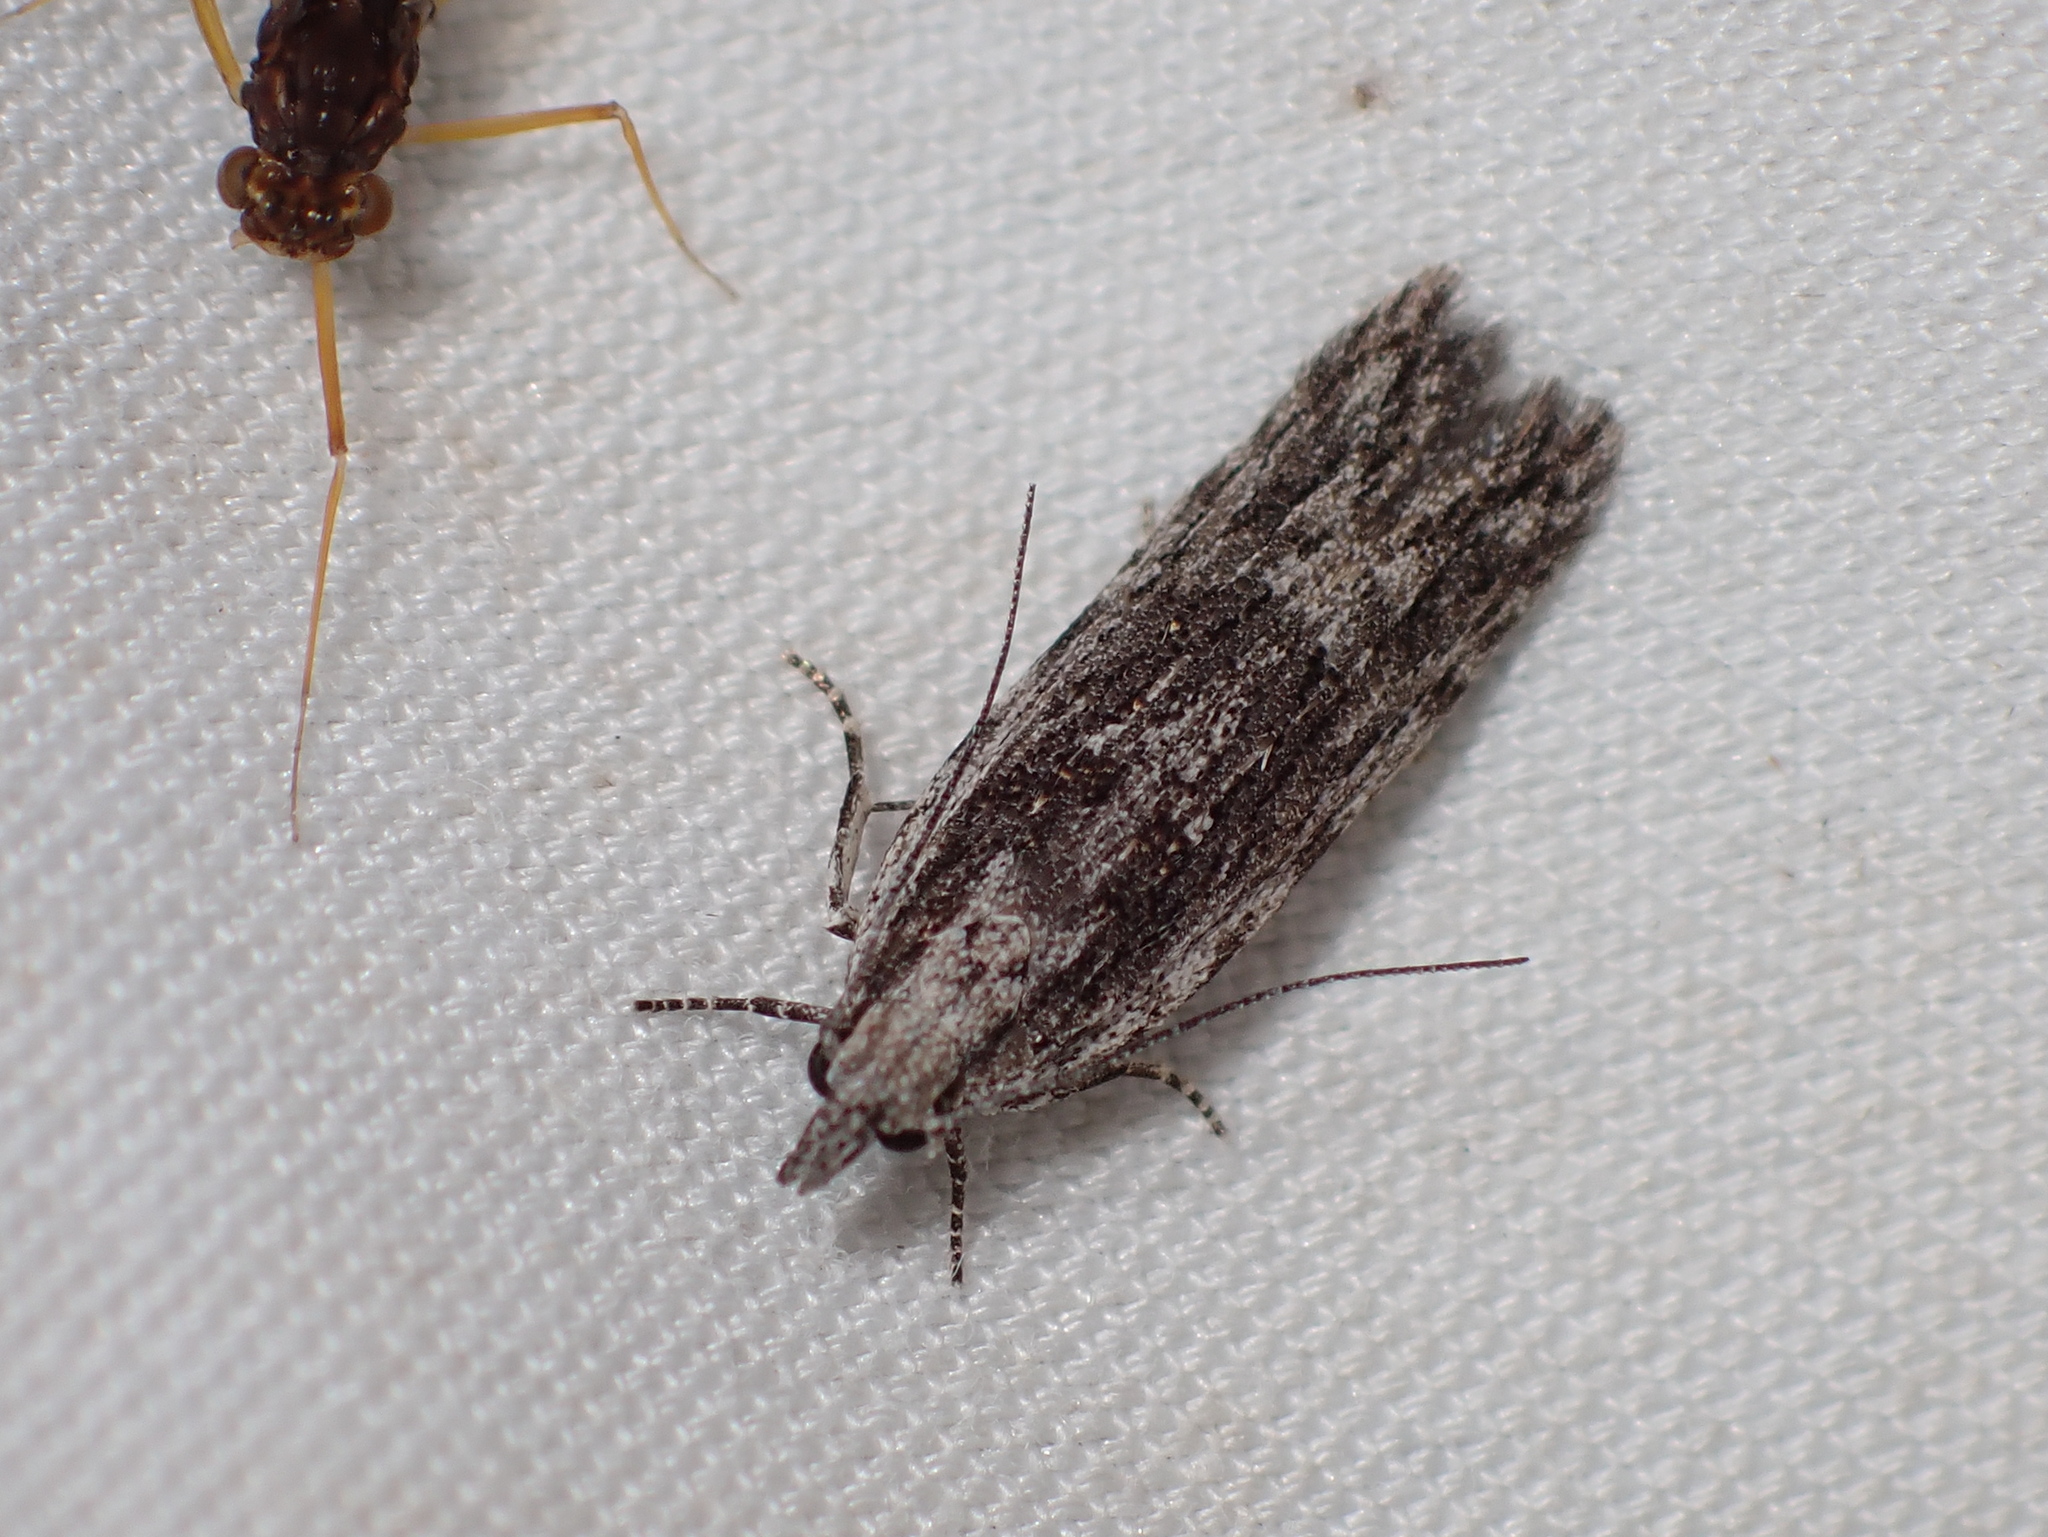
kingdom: Animalia
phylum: Arthropoda
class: Insecta
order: Lepidoptera
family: Gelechiidae
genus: Anarsia
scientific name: Anarsia dryinopa
